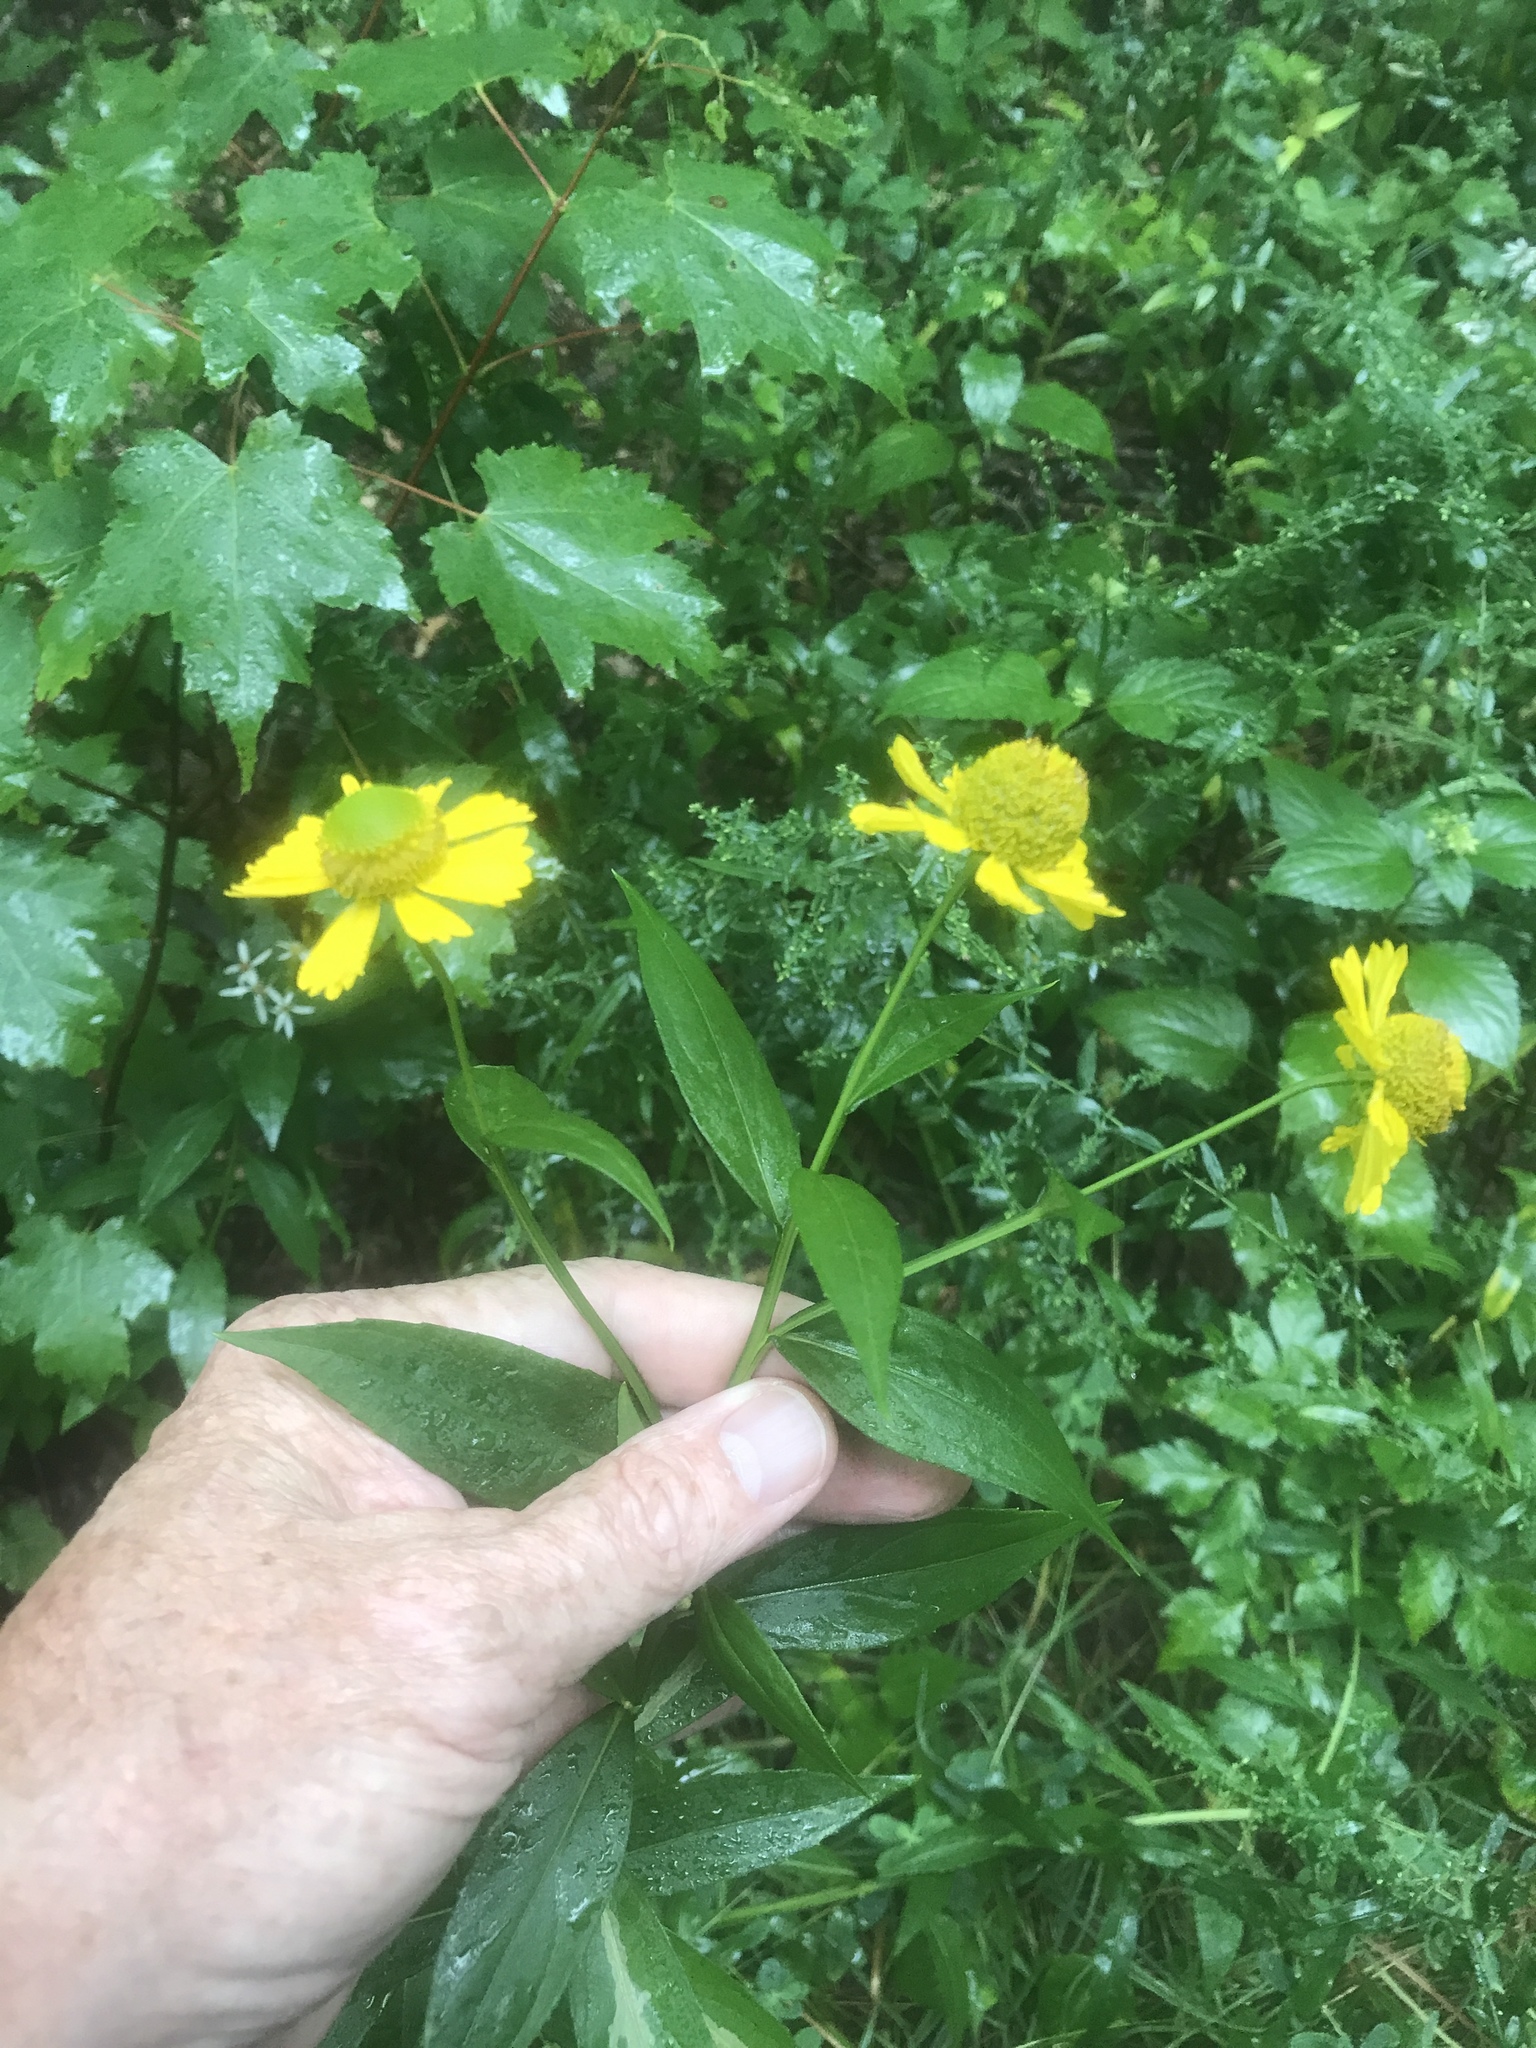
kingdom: Plantae
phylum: Tracheophyta
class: Magnoliopsida
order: Asterales
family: Asteraceae
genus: Helenium
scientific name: Helenium autumnale
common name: Sneezeweed
